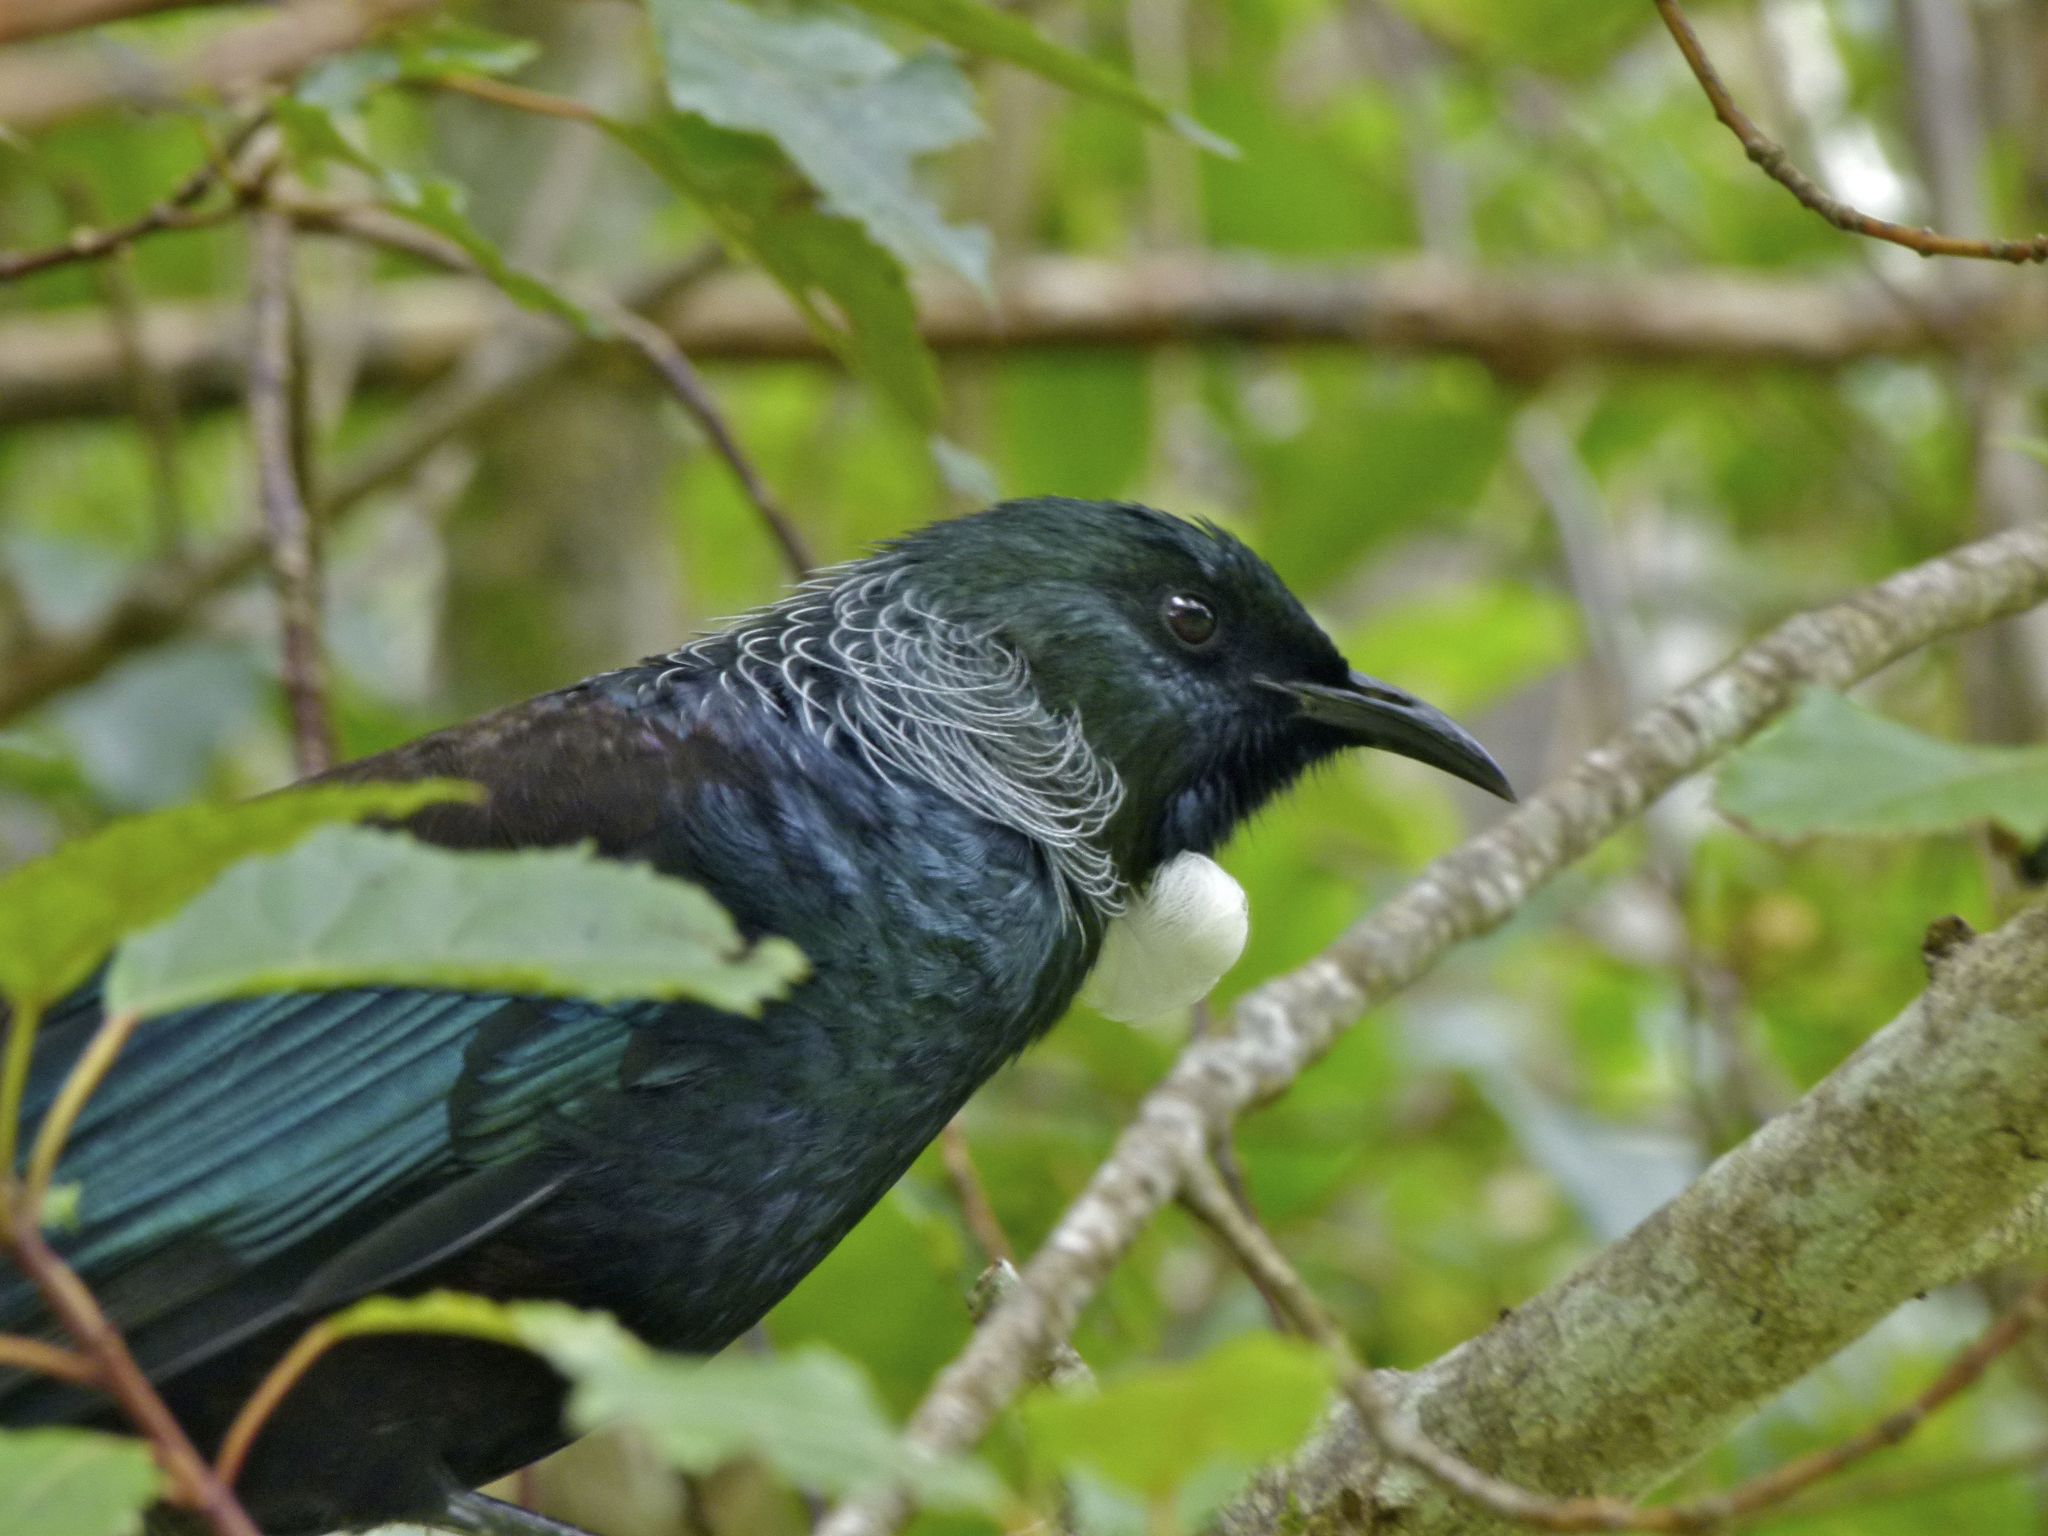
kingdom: Animalia
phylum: Chordata
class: Aves
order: Passeriformes
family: Meliphagidae
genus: Prosthemadera
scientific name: Prosthemadera novaeseelandiae
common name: Tui
